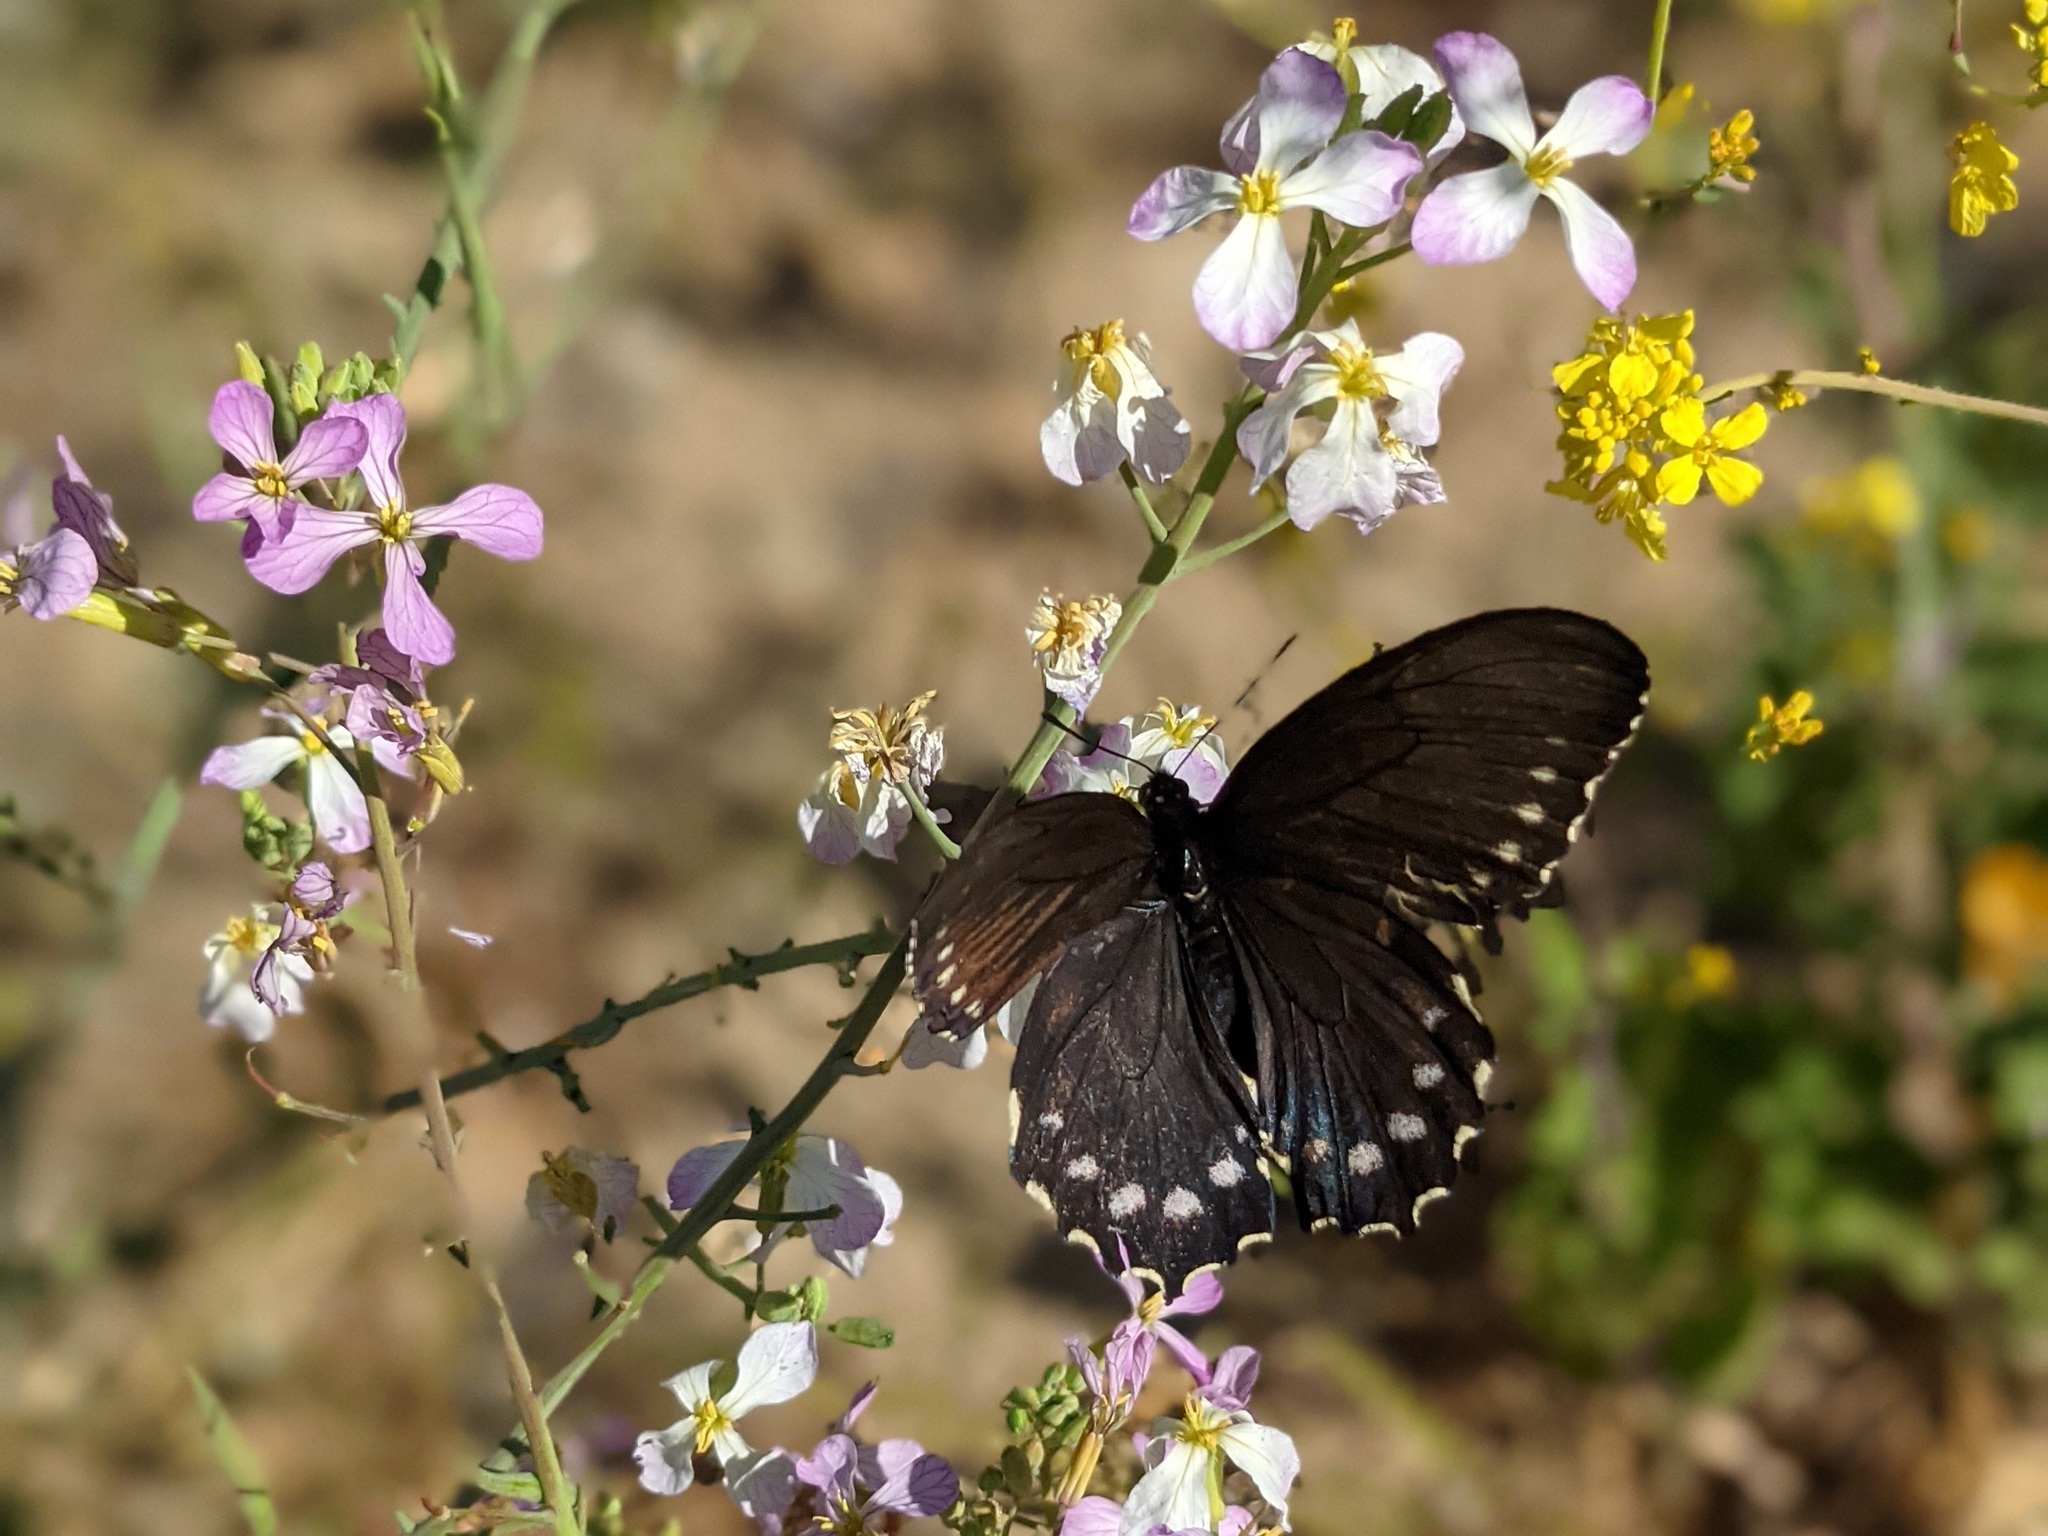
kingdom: Animalia
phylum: Arthropoda
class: Insecta
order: Lepidoptera
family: Papilionidae
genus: Battus
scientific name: Battus philenor
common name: Pipevine swallowtail
